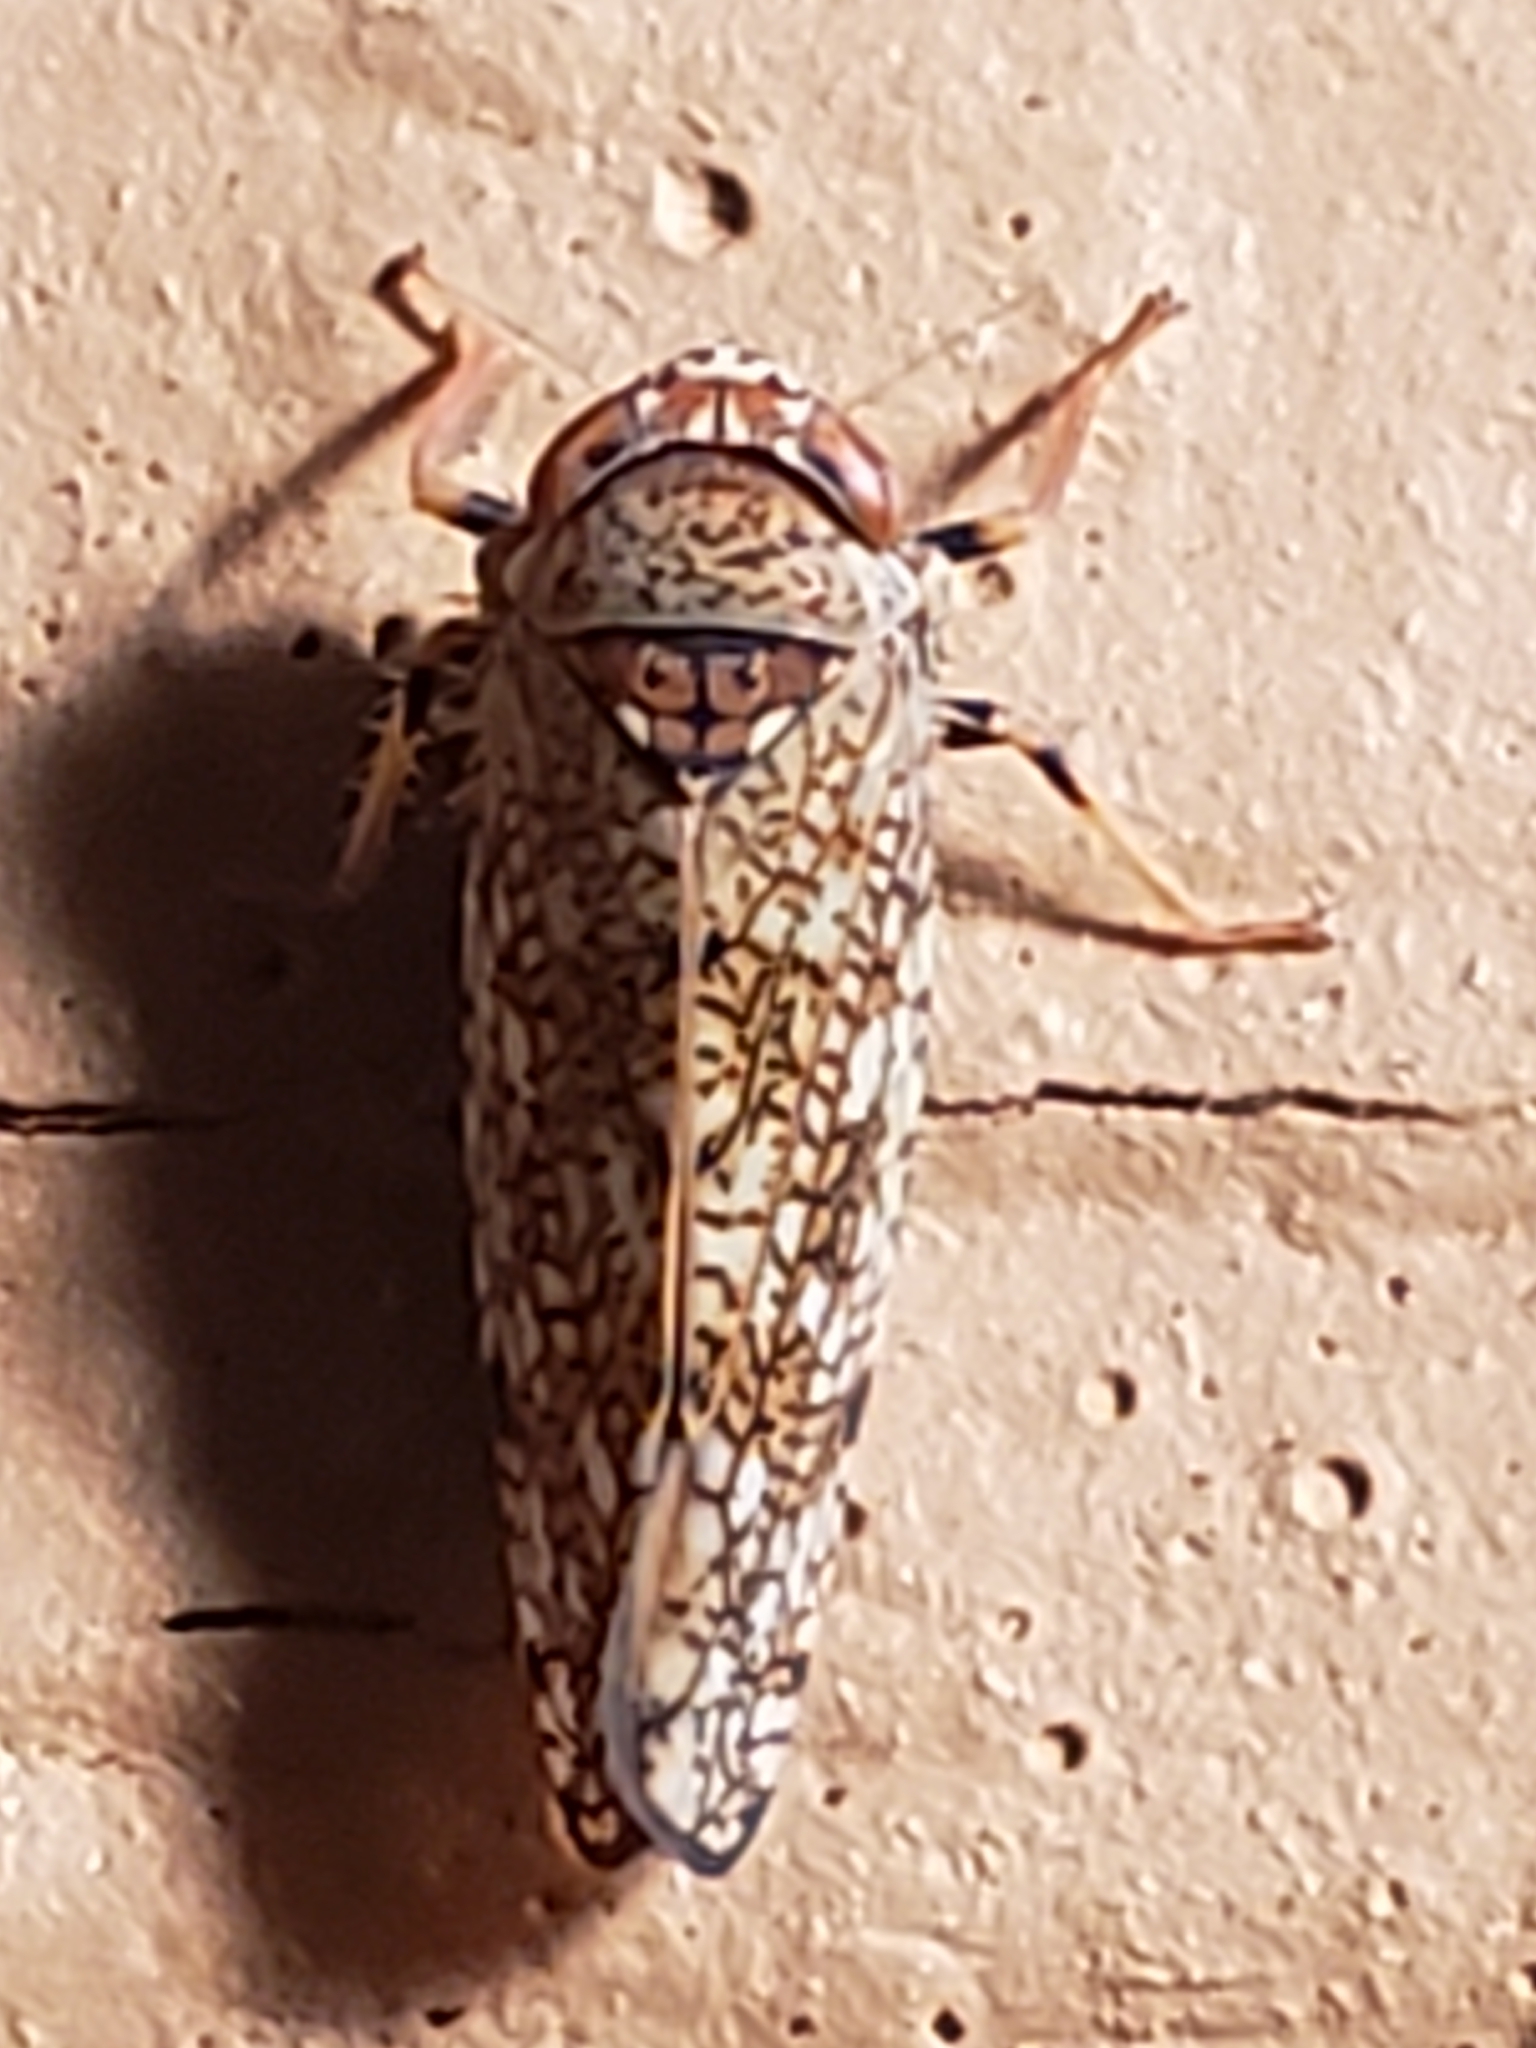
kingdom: Animalia
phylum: Arthropoda
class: Insecta
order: Hemiptera
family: Cicadellidae
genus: Orientus
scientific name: Orientus ishidae
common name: Japanese leafhopper
